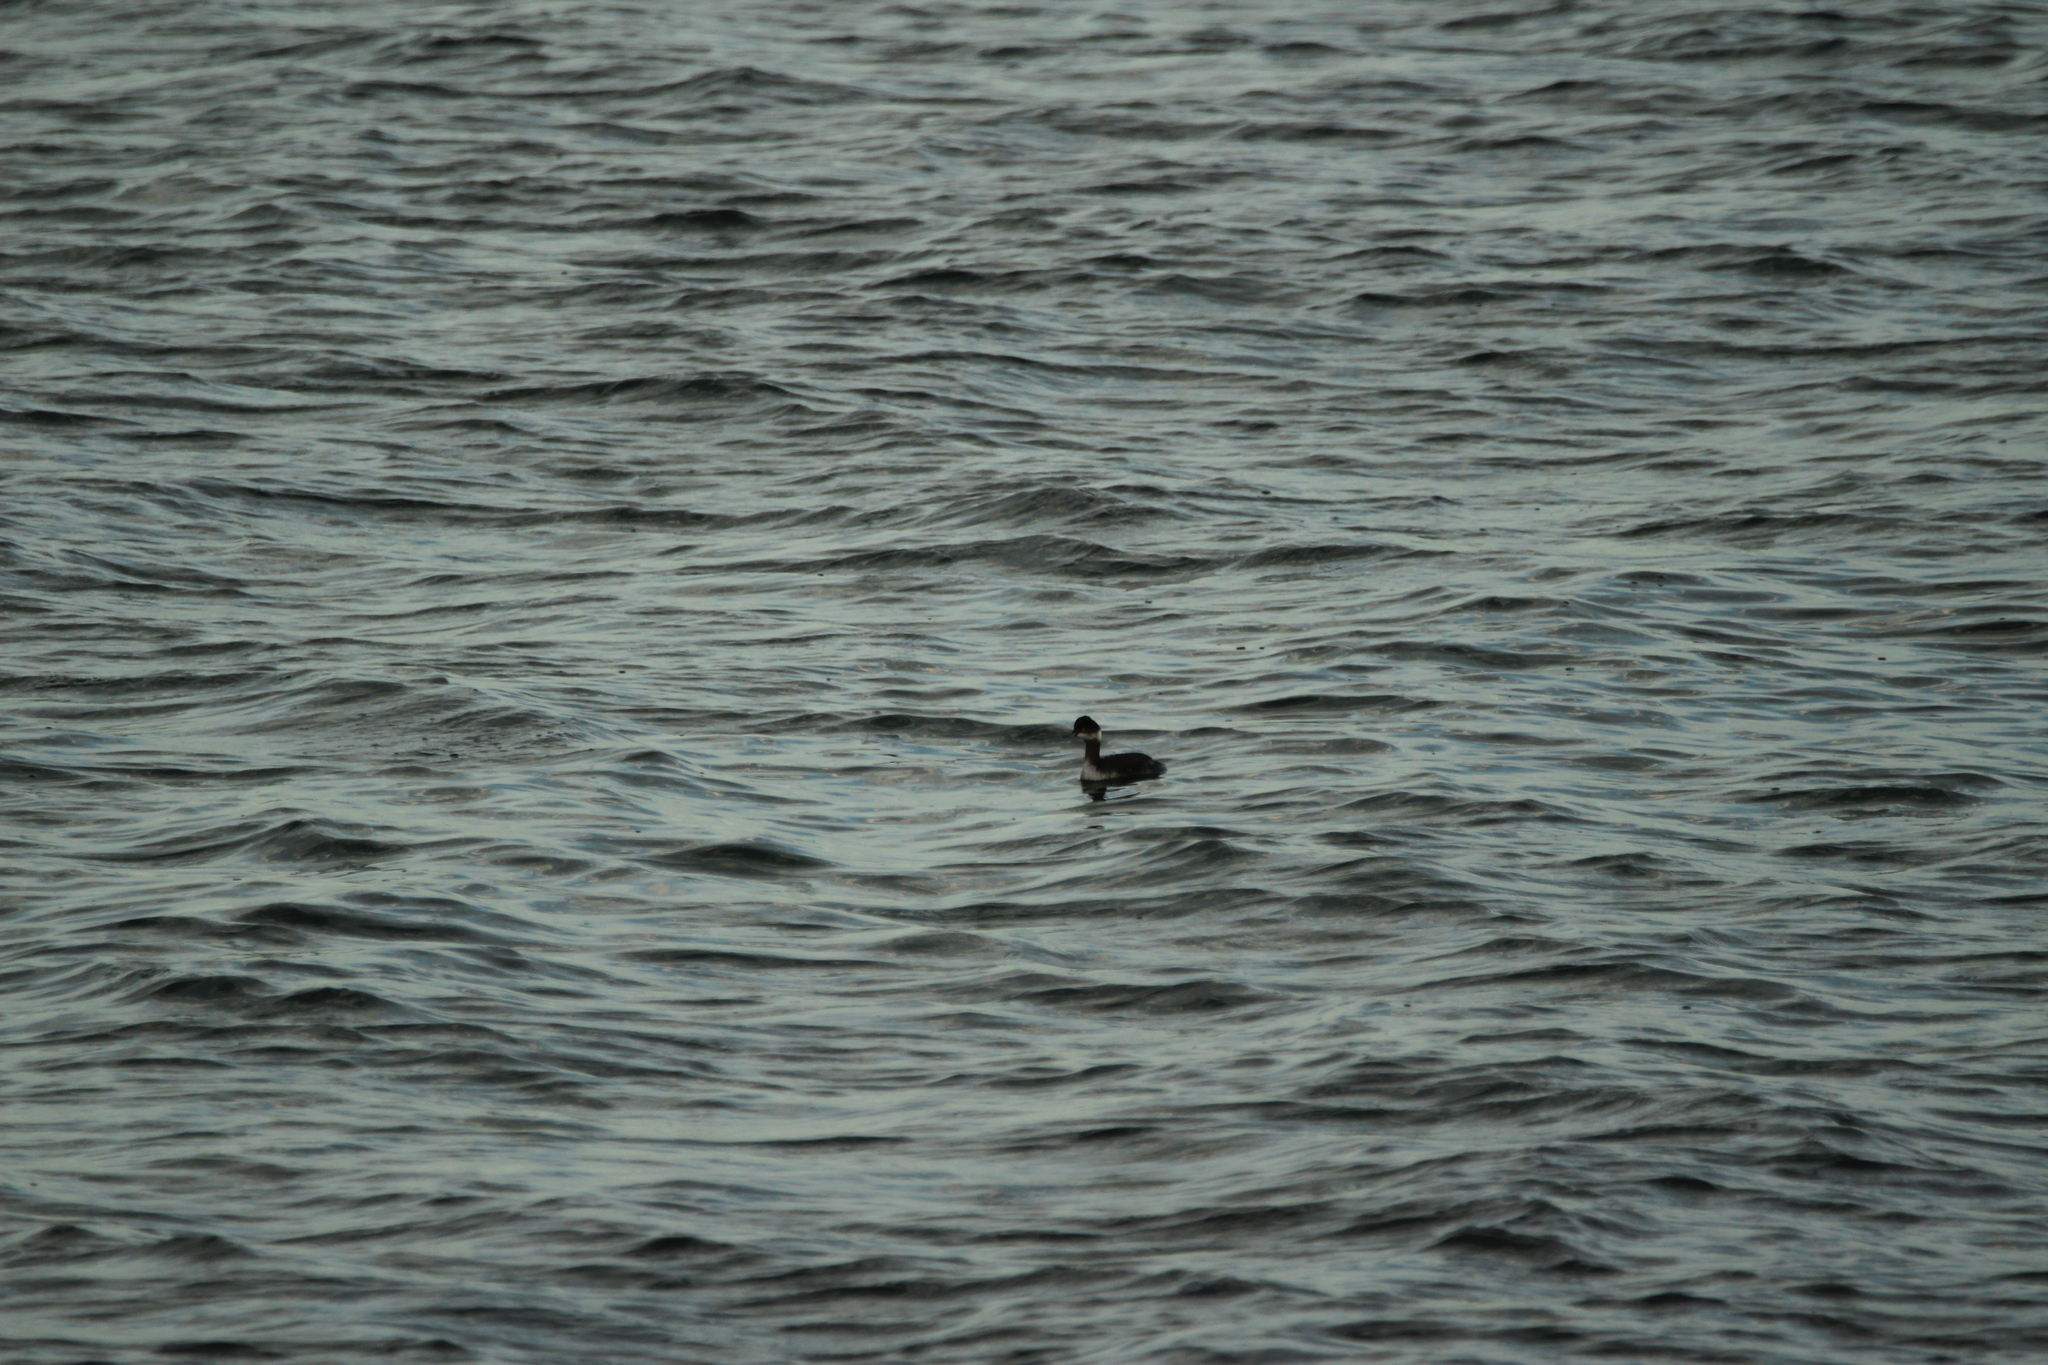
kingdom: Animalia
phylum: Chordata
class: Aves
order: Podicipediformes
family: Podicipedidae
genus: Podiceps
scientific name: Podiceps nigricollis
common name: Black-necked grebe
